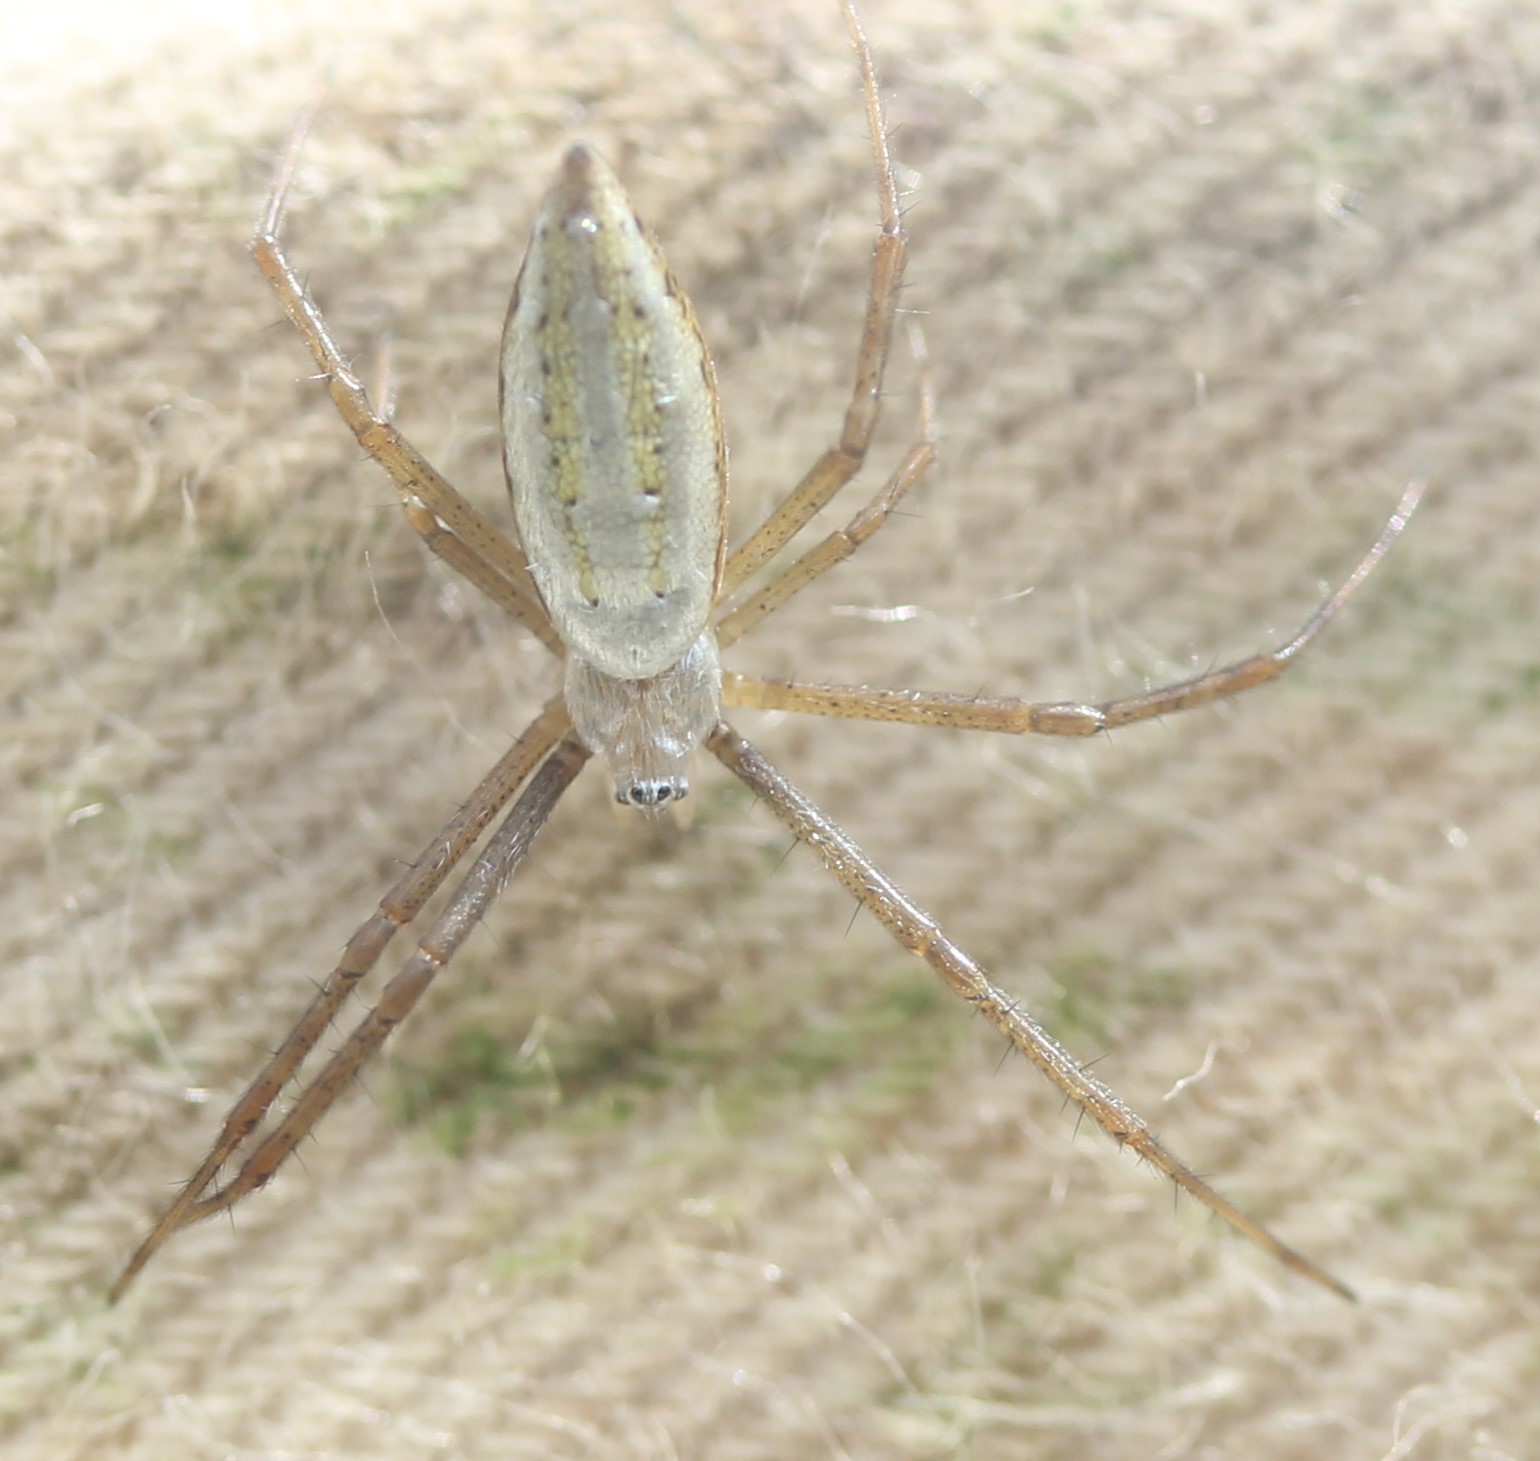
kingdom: Animalia
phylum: Arthropoda
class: Arachnida
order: Araneae
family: Araneidae
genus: Argiope
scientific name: Argiope trifasciata
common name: Banded garden spider
